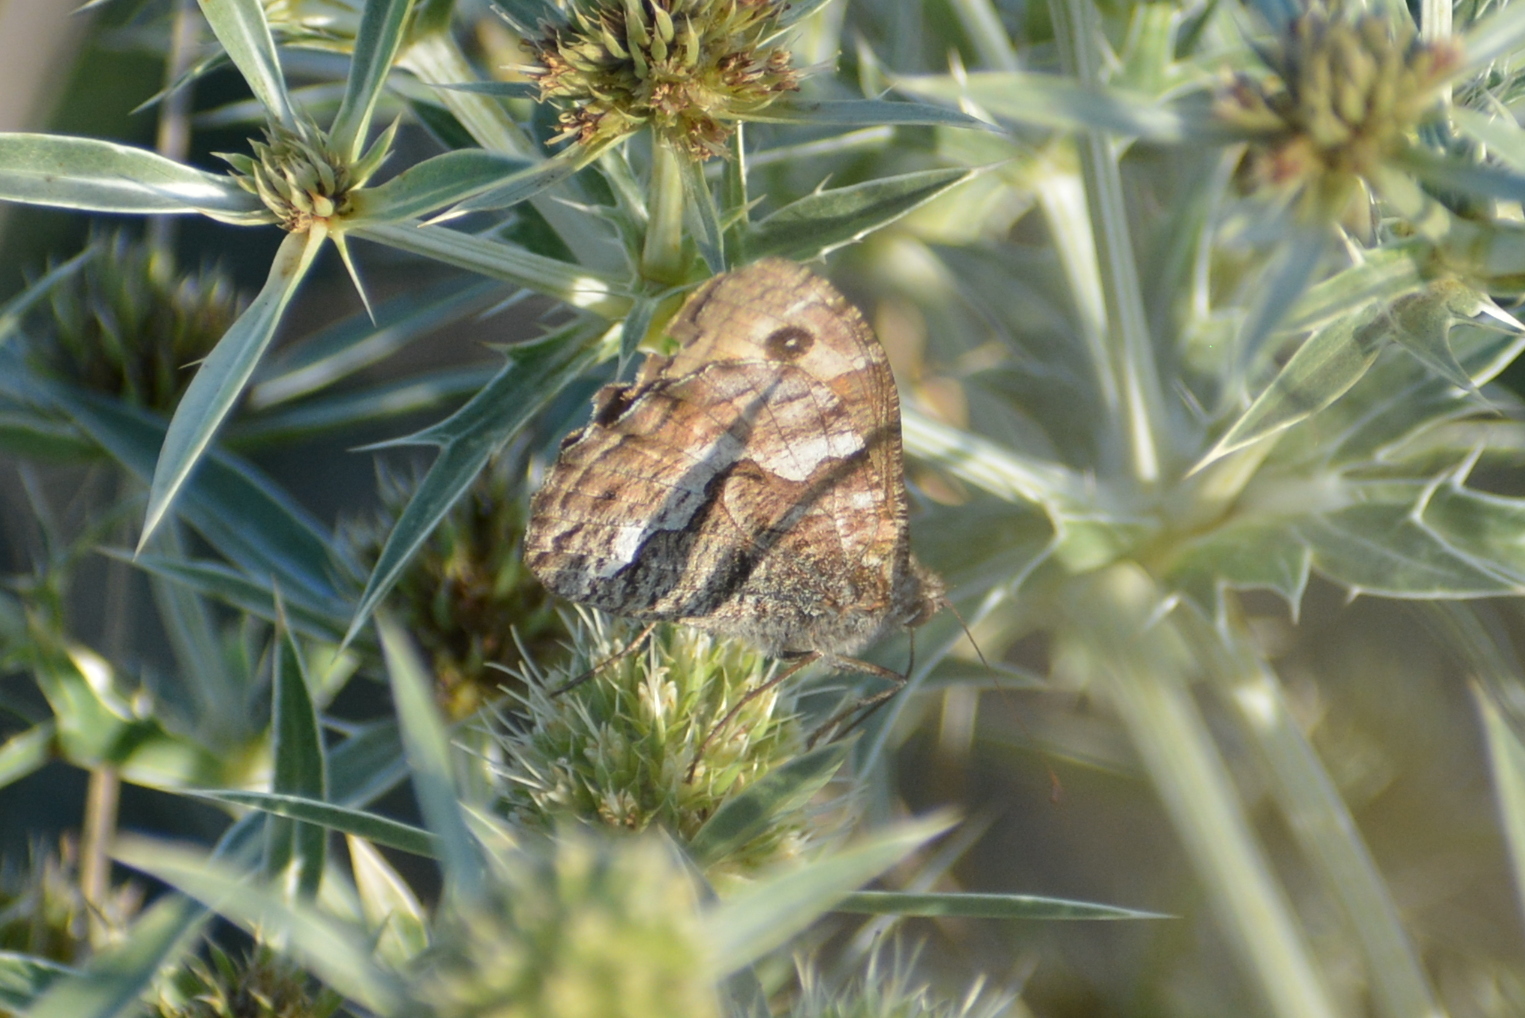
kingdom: Animalia
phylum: Arthropoda
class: Insecta
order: Lepidoptera
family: Nymphalidae
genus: Hipparchia
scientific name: Hipparchia semele
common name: Grayling
